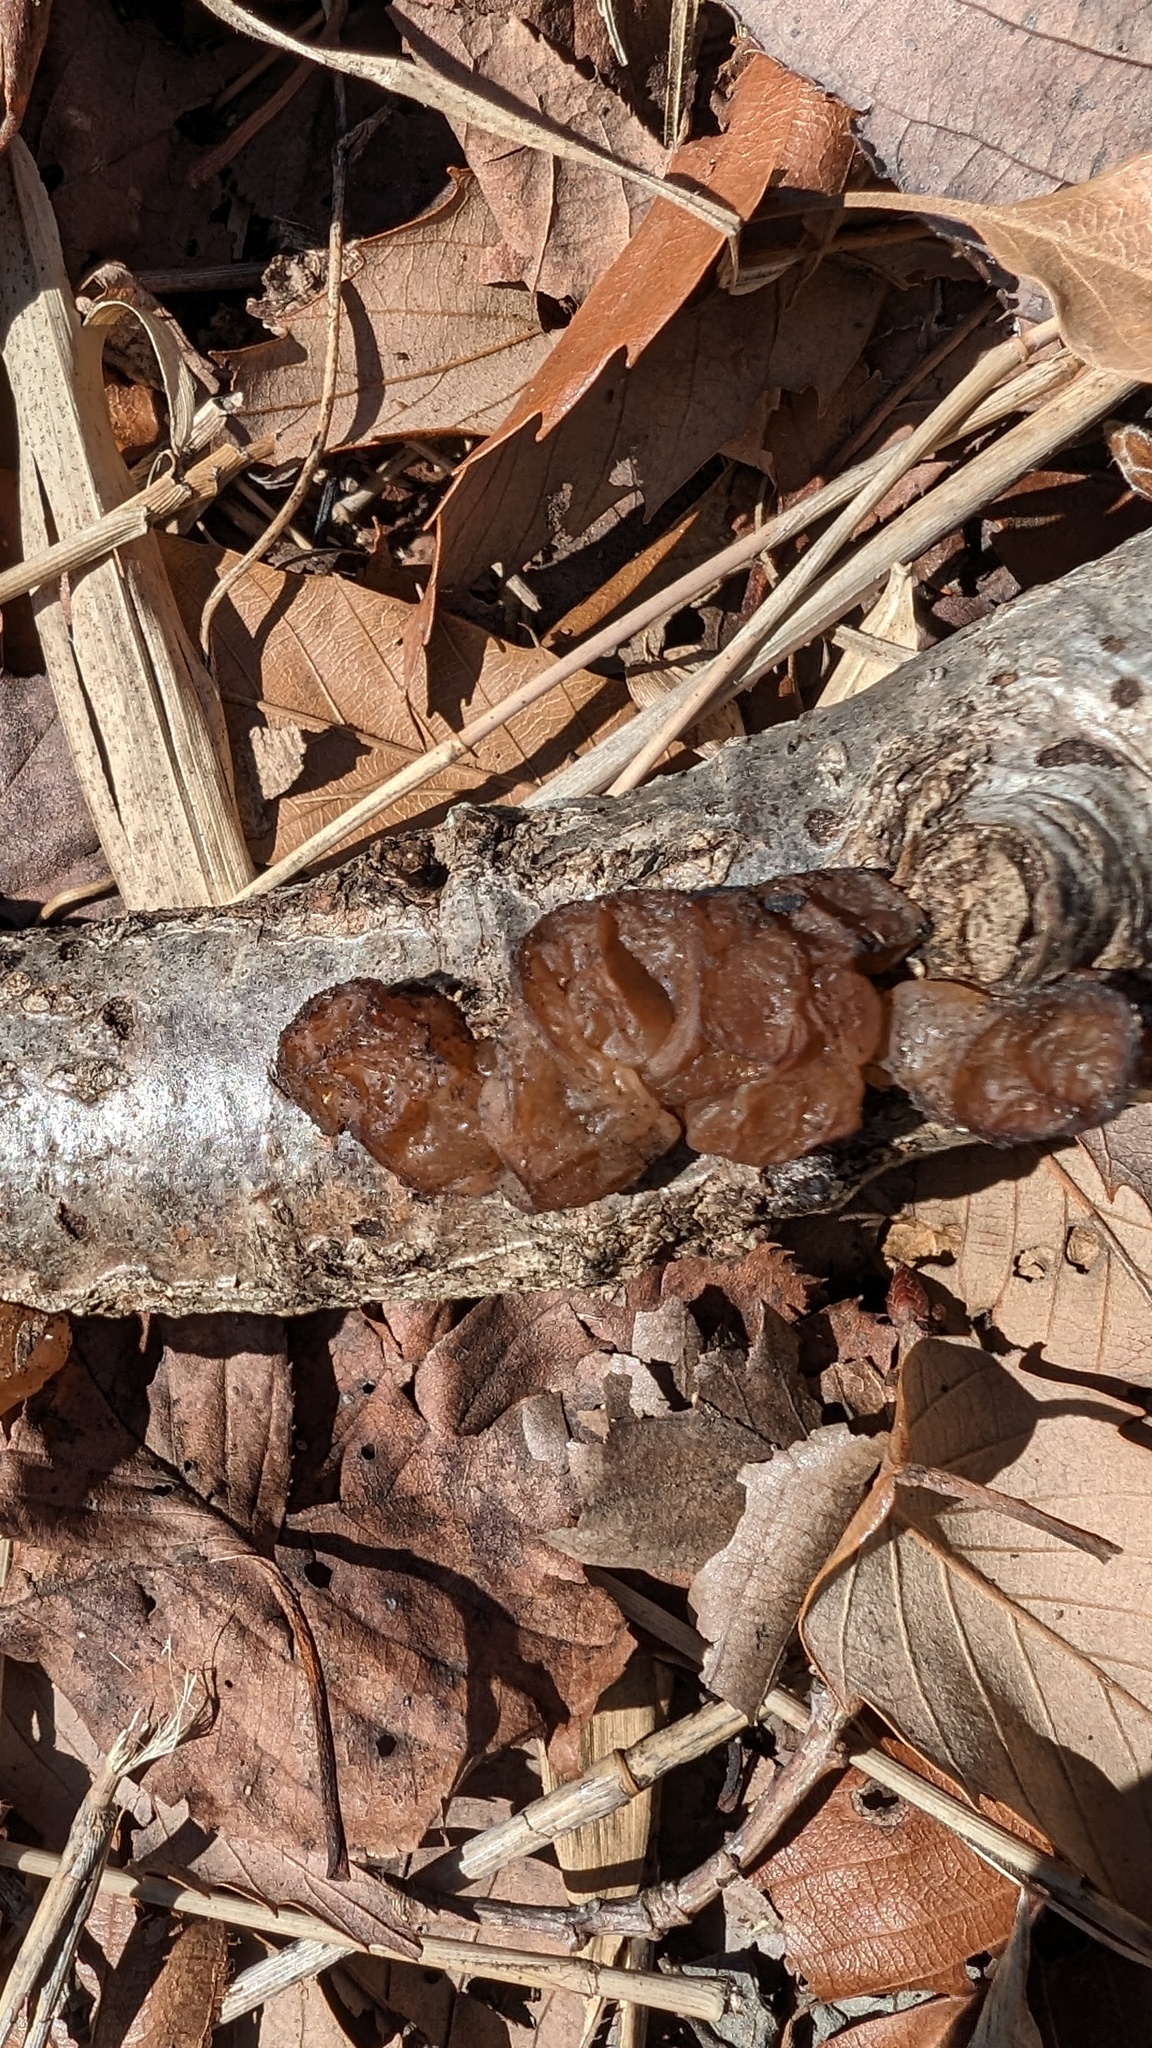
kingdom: Fungi
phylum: Basidiomycota
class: Agaricomycetes
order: Auriculariales
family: Auriculariaceae
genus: Exidia
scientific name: Exidia uvapassa
